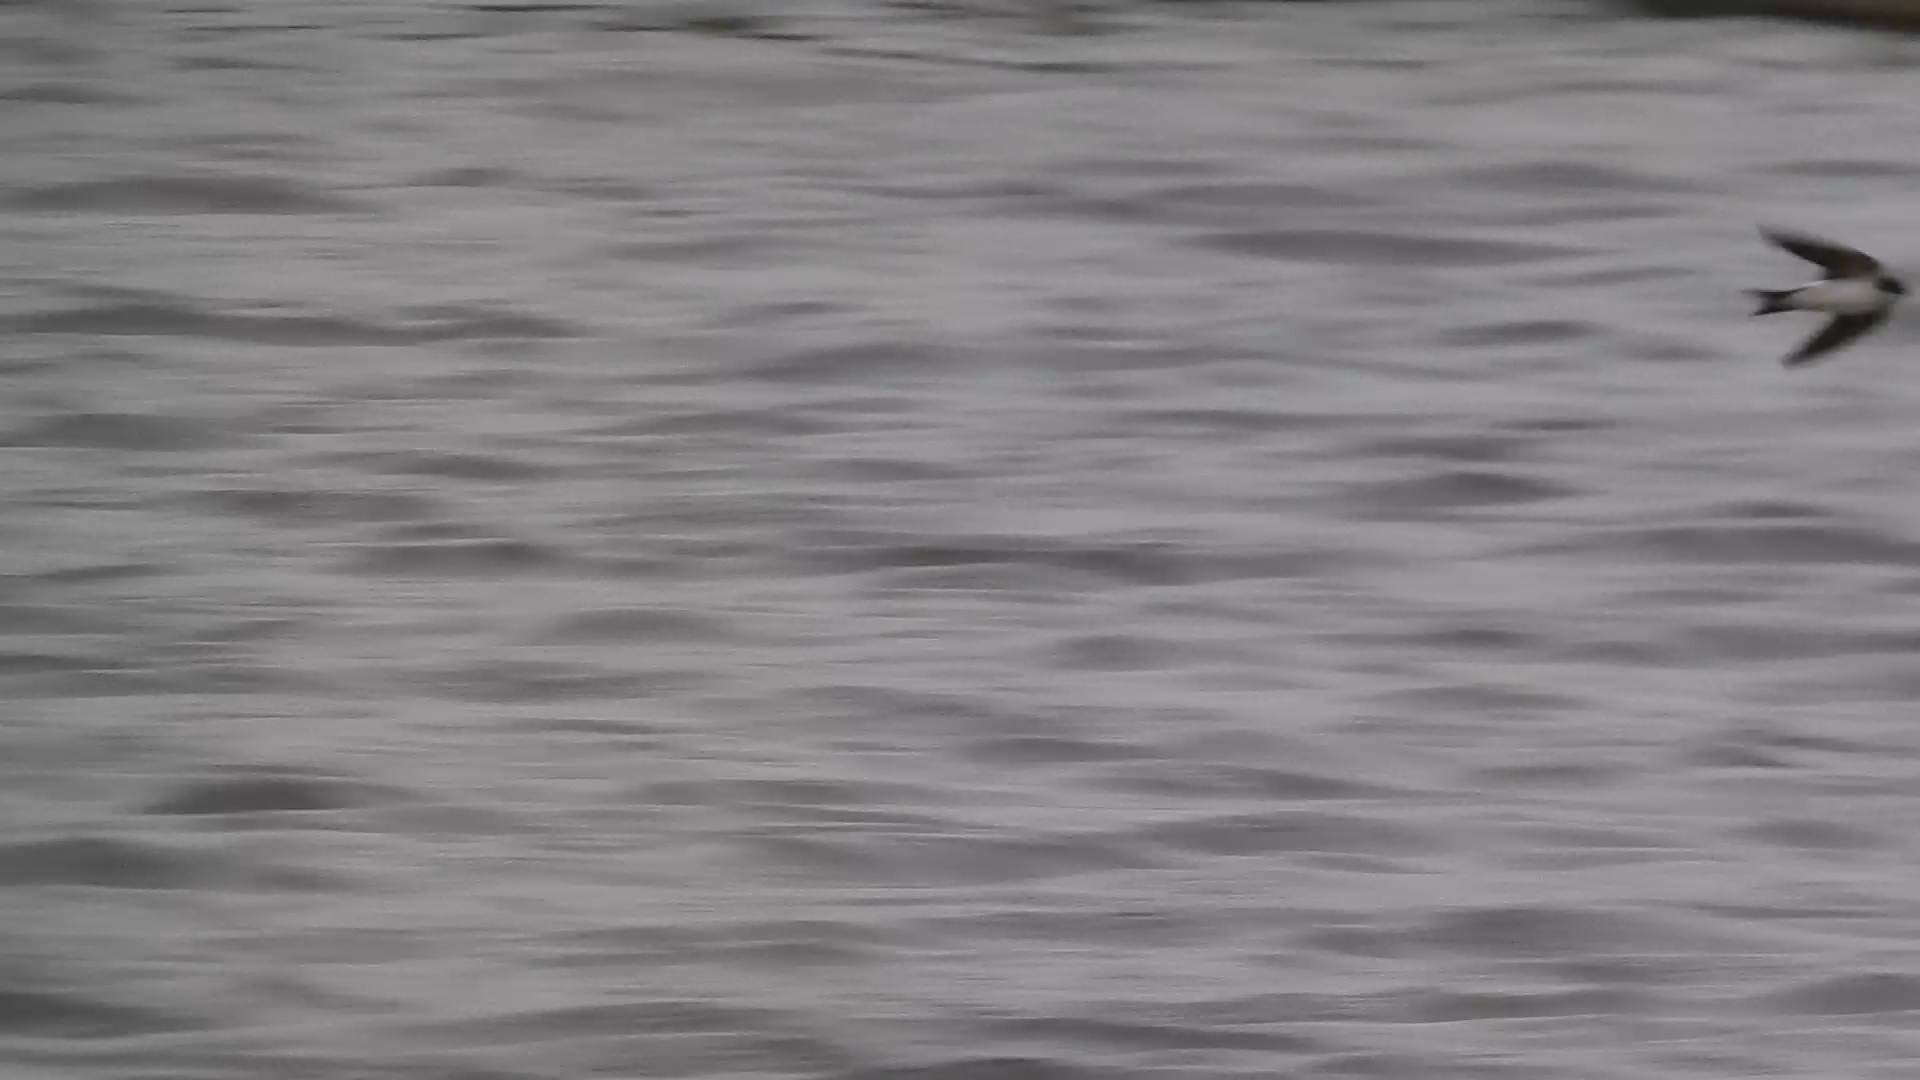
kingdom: Animalia
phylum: Chordata
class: Aves
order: Passeriformes
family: Hirundinidae
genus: Delichon
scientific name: Delichon urbicum
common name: Common house martin
